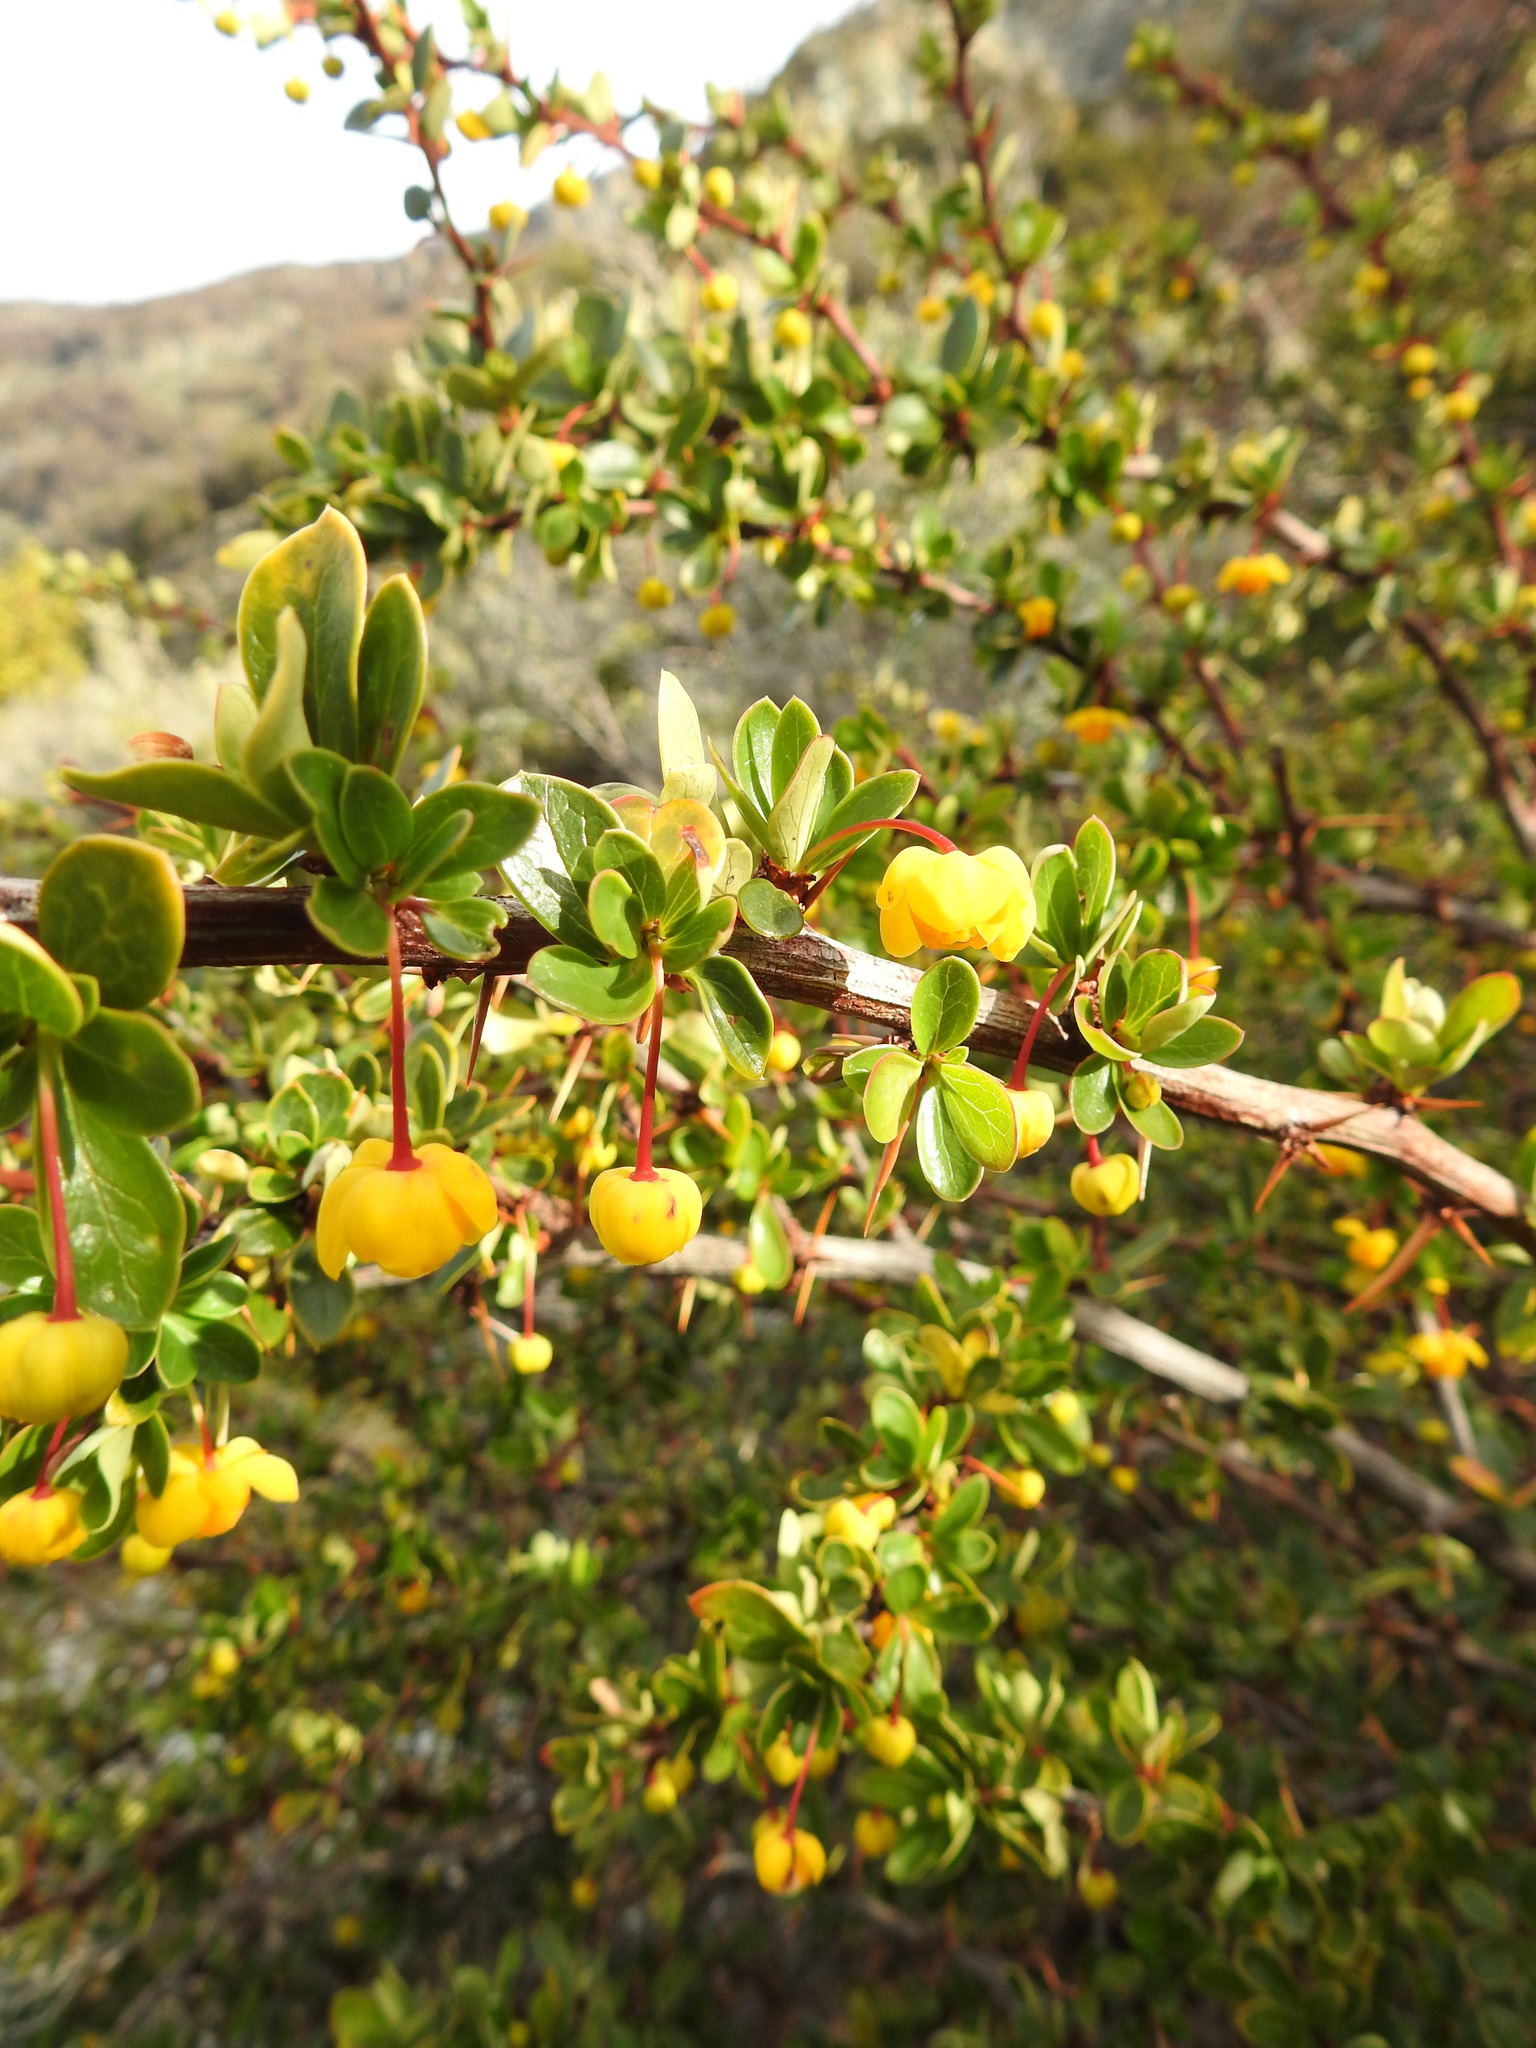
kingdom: Plantae
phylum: Tracheophyta
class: Magnoliopsida
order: Ranunculales
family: Berberidaceae
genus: Berberis
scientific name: Berberis microphylla
